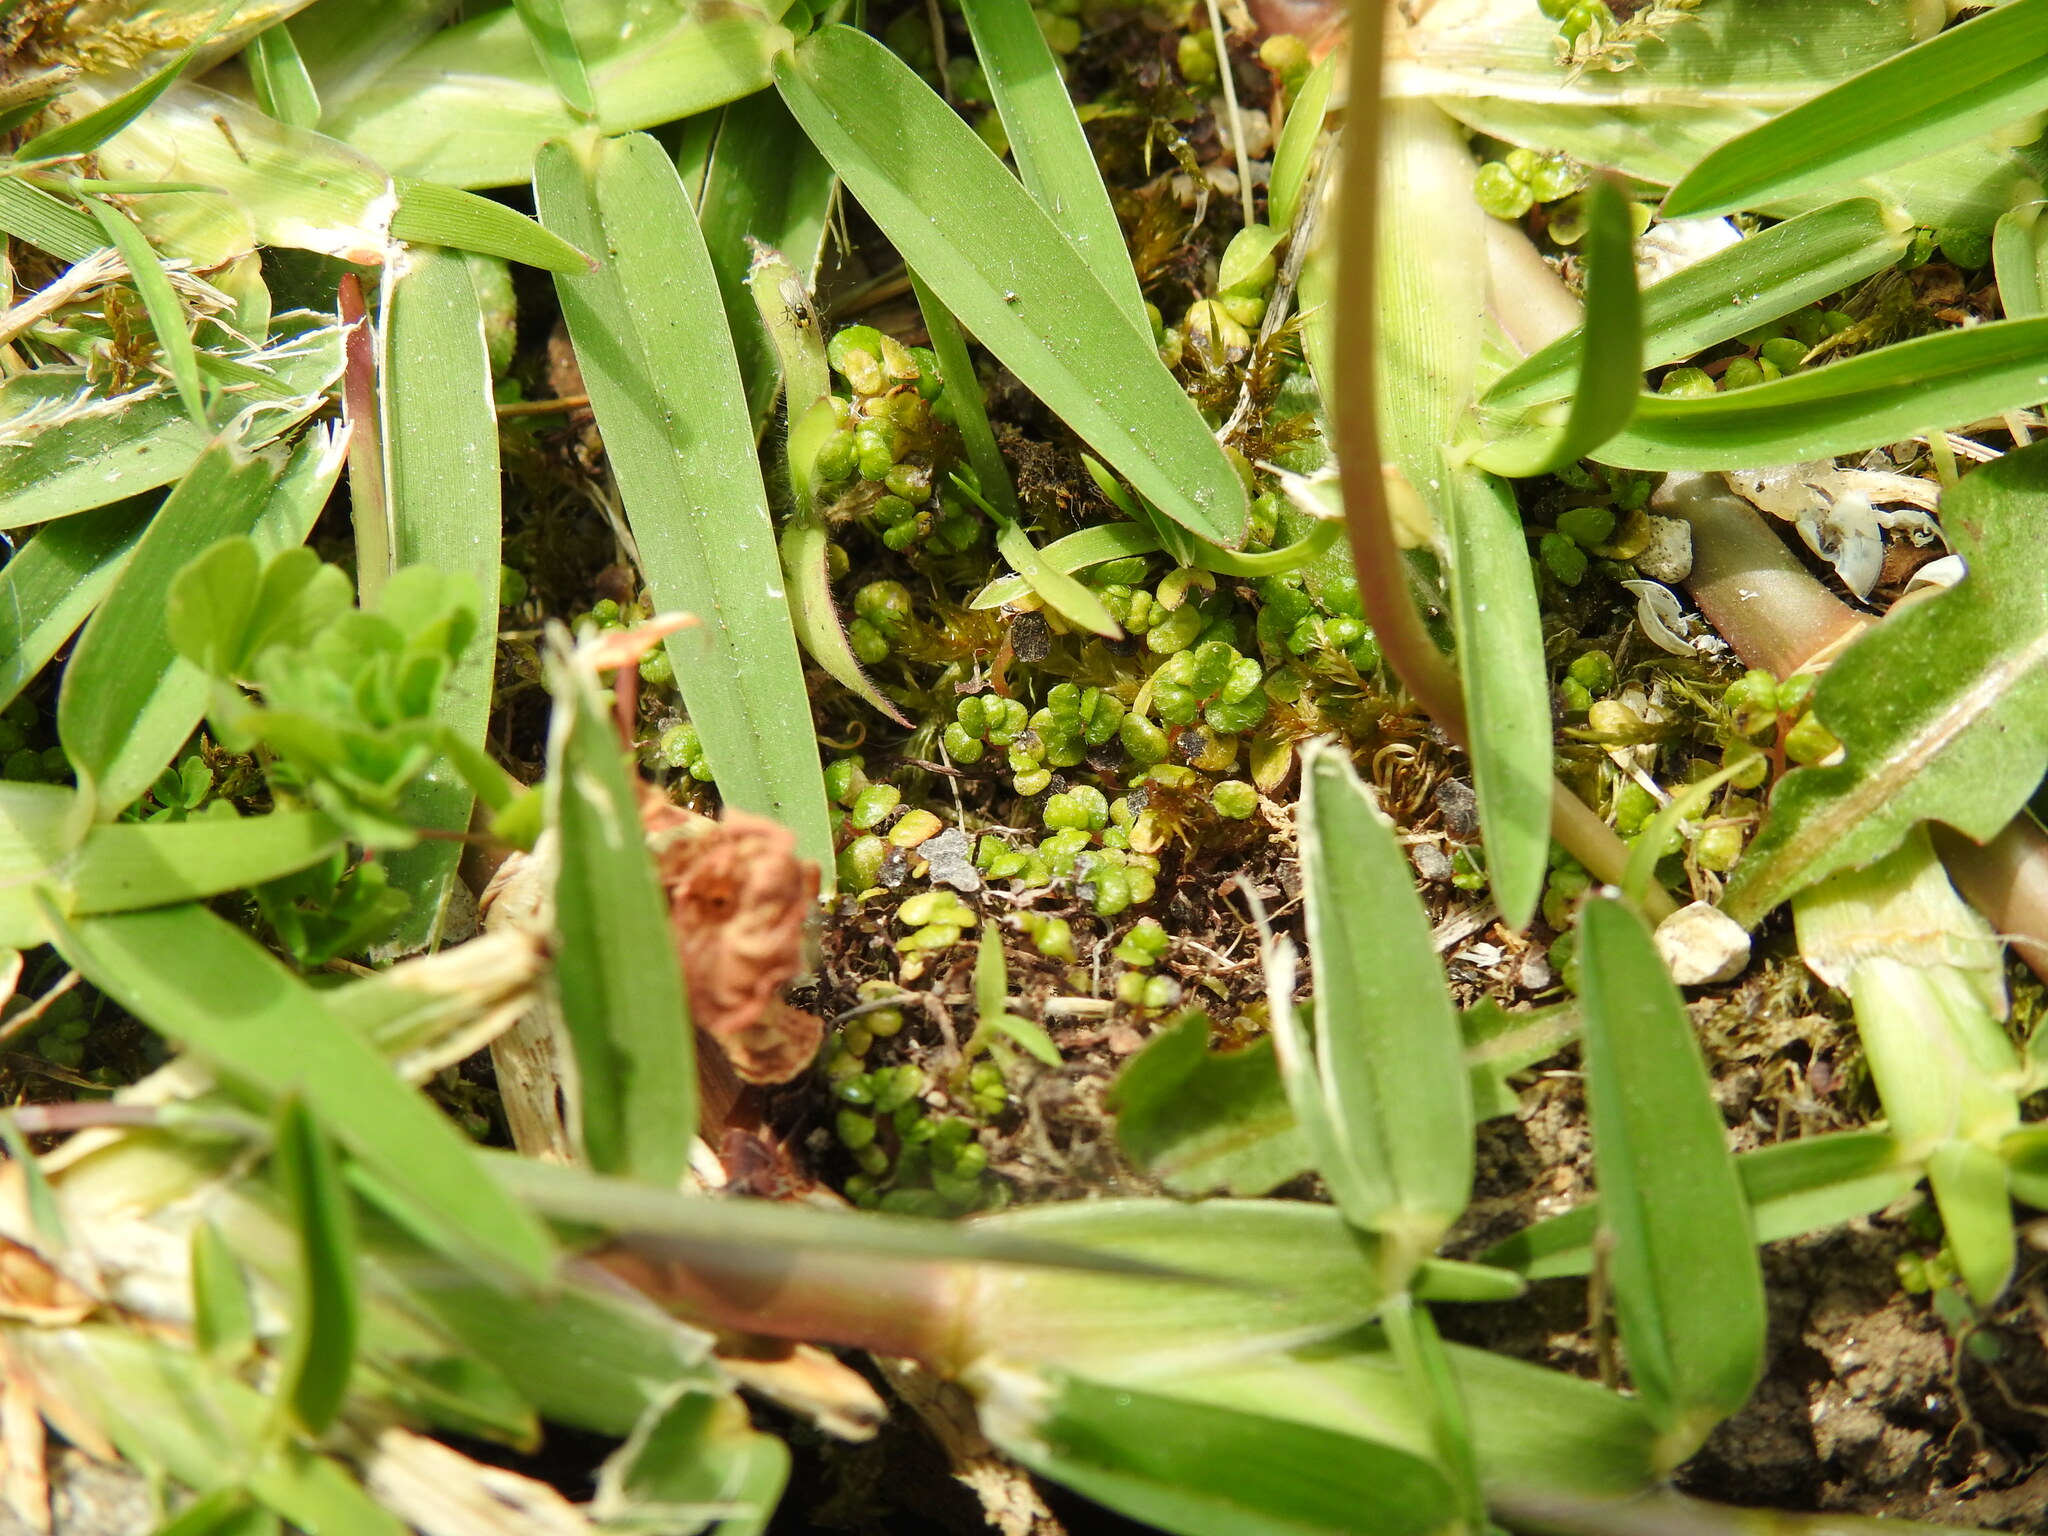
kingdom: Plantae
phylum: Tracheophyta
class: Magnoliopsida
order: Rosales
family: Urticaceae
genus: Soleirolia
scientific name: Soleirolia soleirolii
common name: Mind-your-own-business
